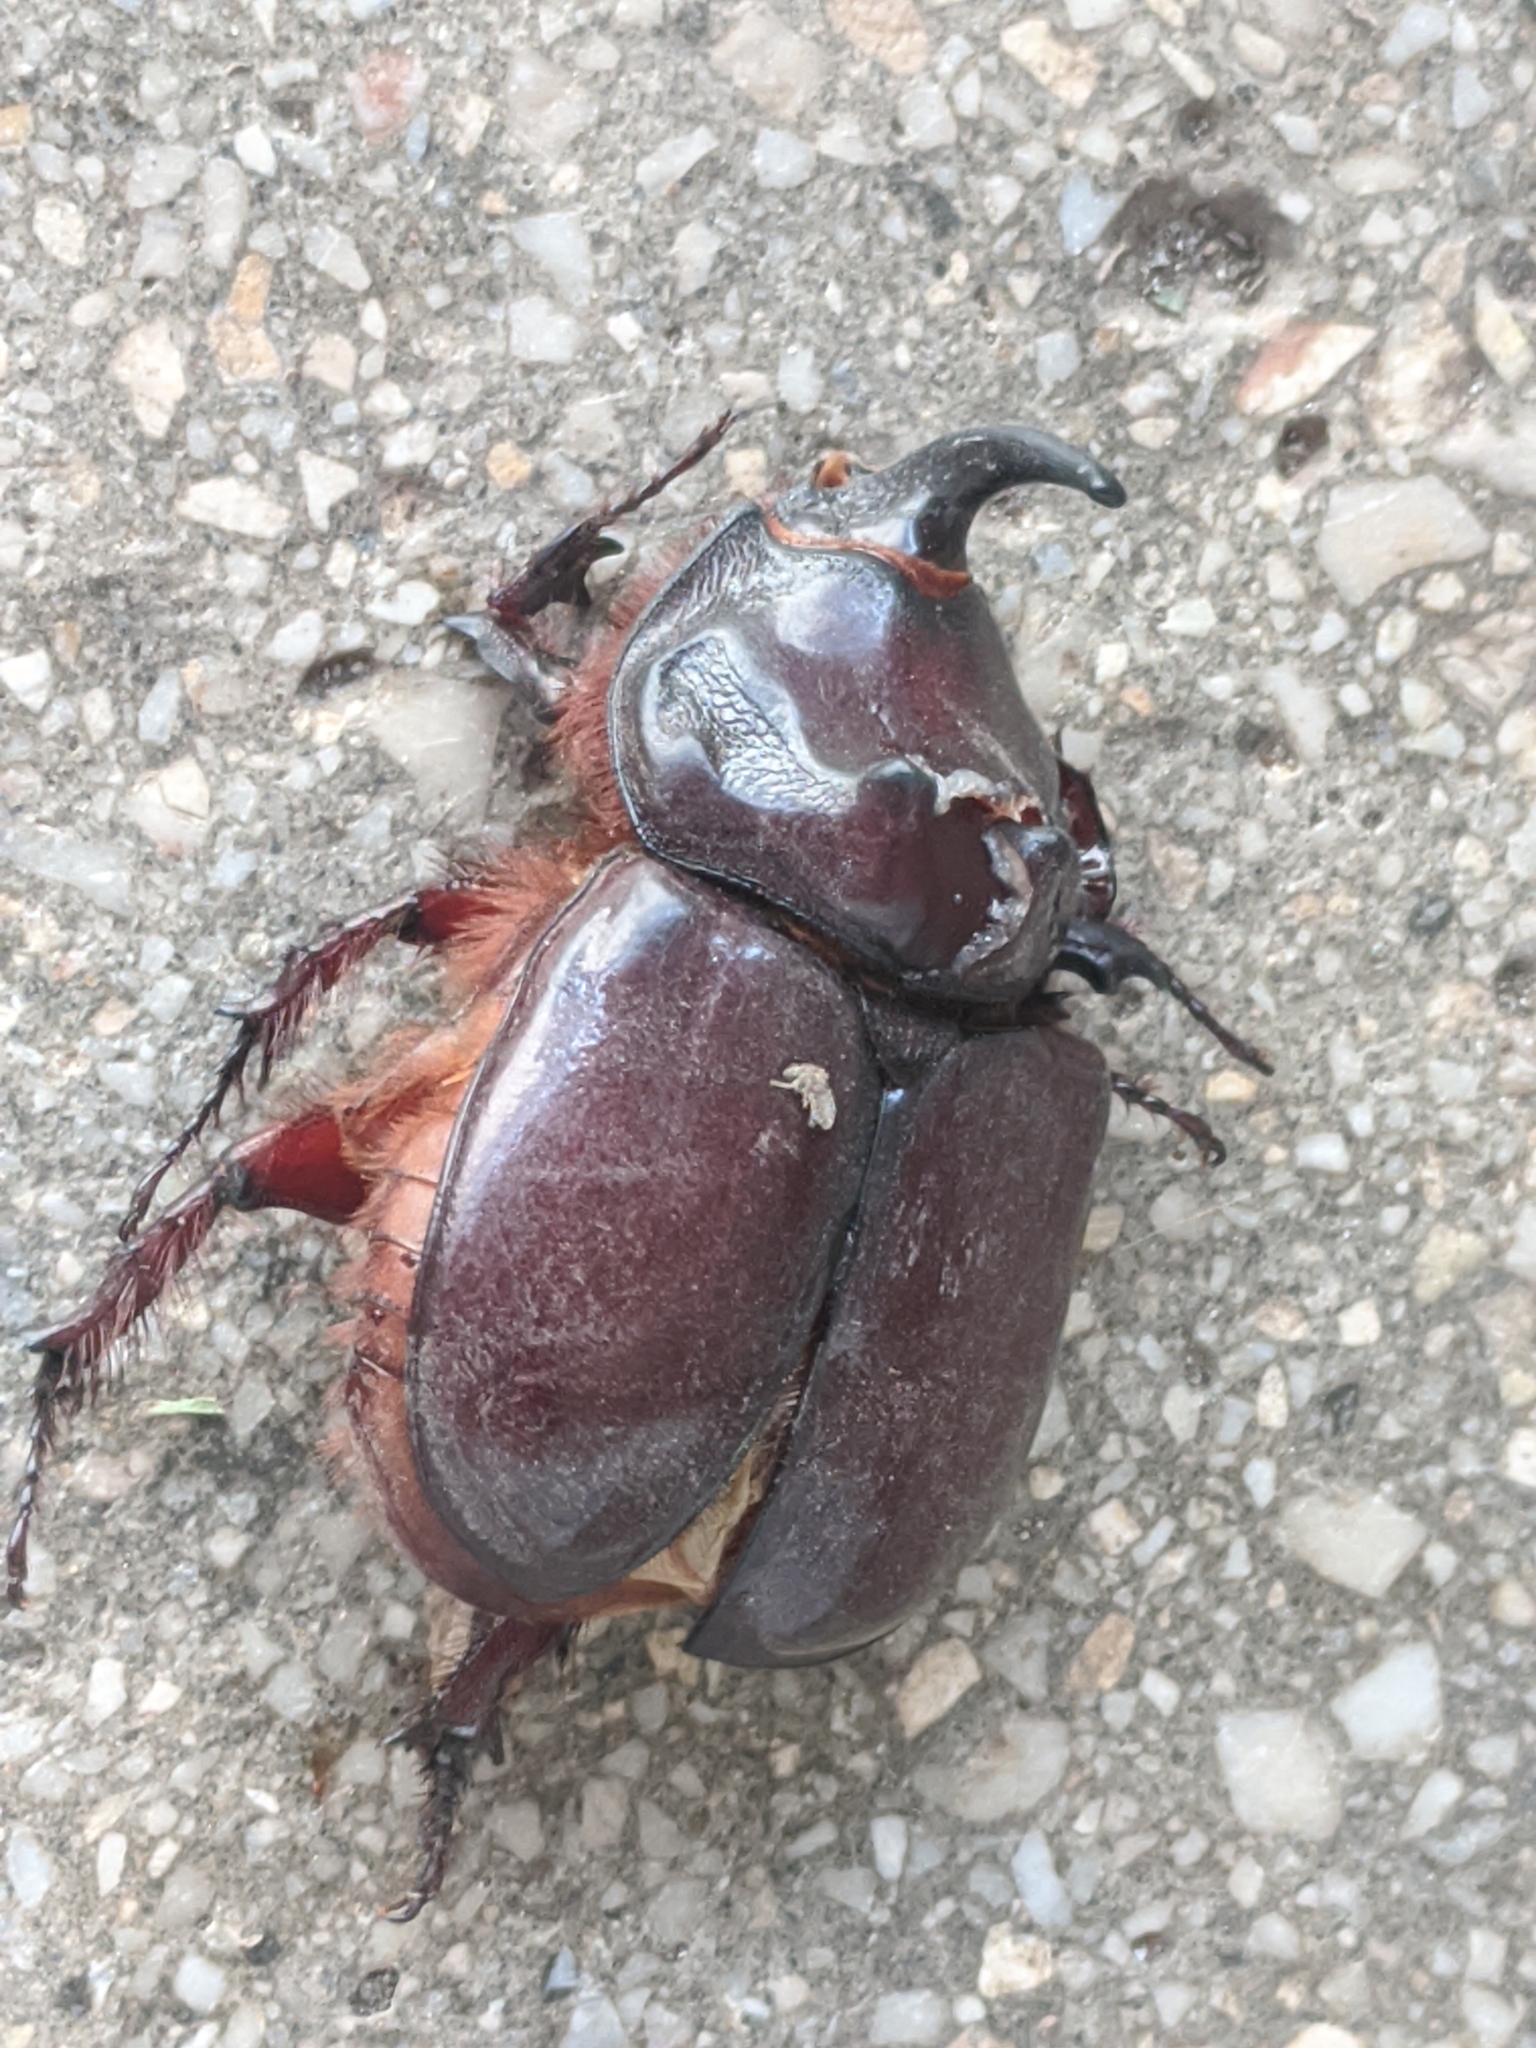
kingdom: Animalia
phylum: Arthropoda
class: Insecta
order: Coleoptera
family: Scarabaeidae
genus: Oryctes
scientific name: Oryctes nasicornis
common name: European rhinoceros beetle
